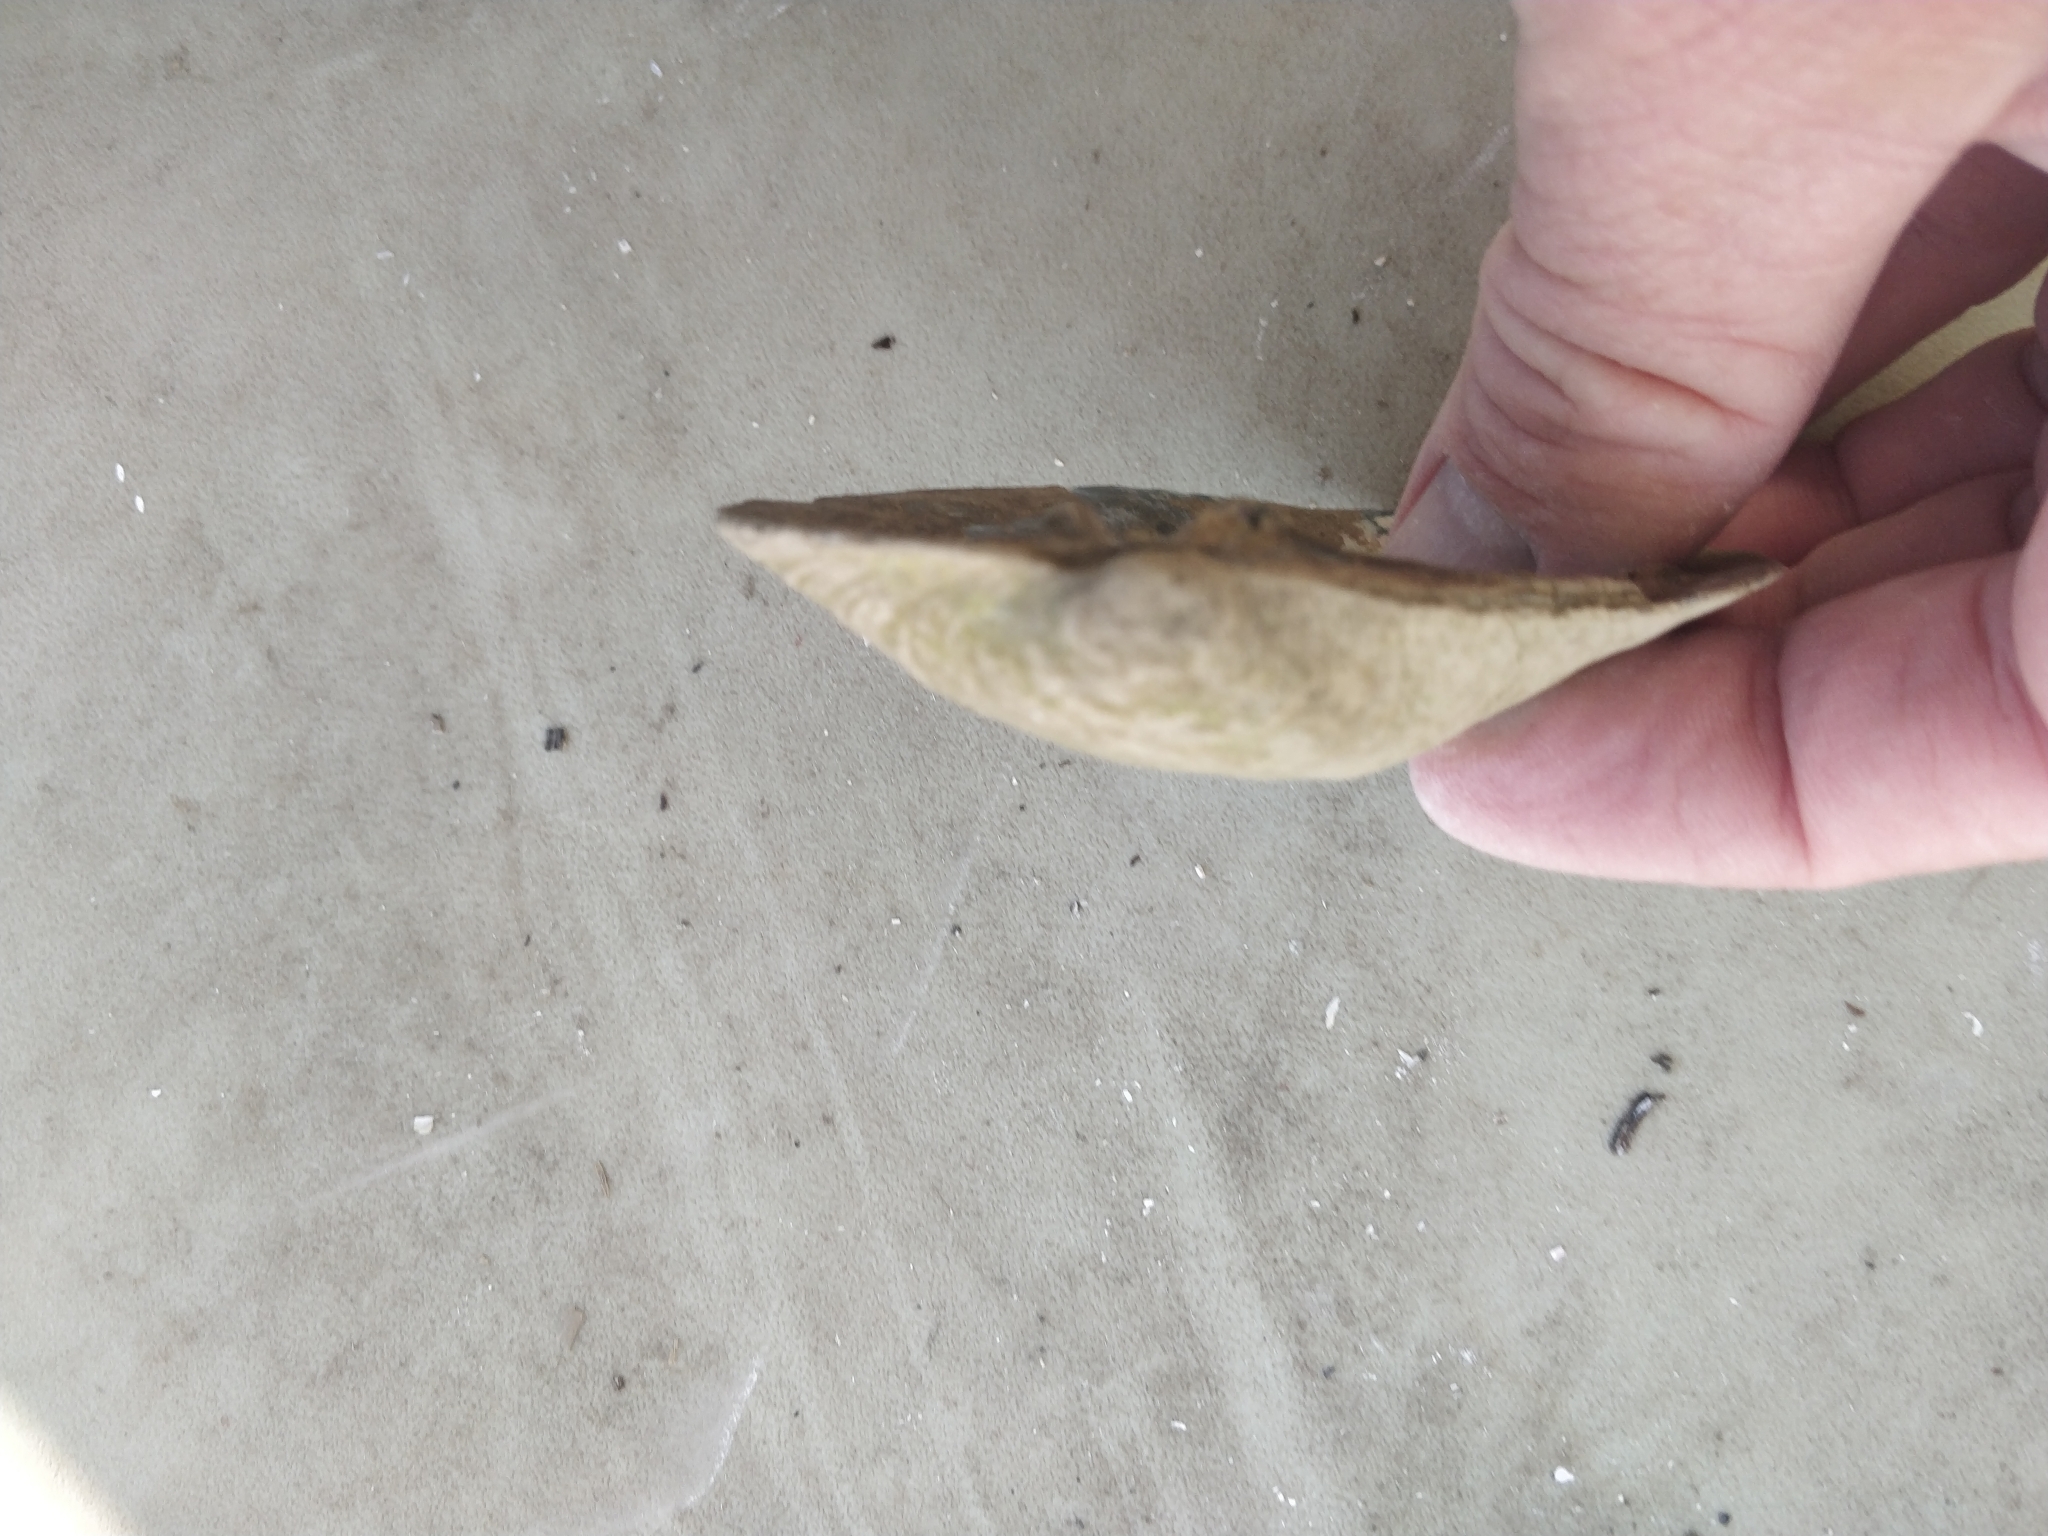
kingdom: Animalia
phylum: Mollusca
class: Bivalvia
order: Unionida
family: Unionidae
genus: Amblema
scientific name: Amblema plicata
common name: Threeridge
